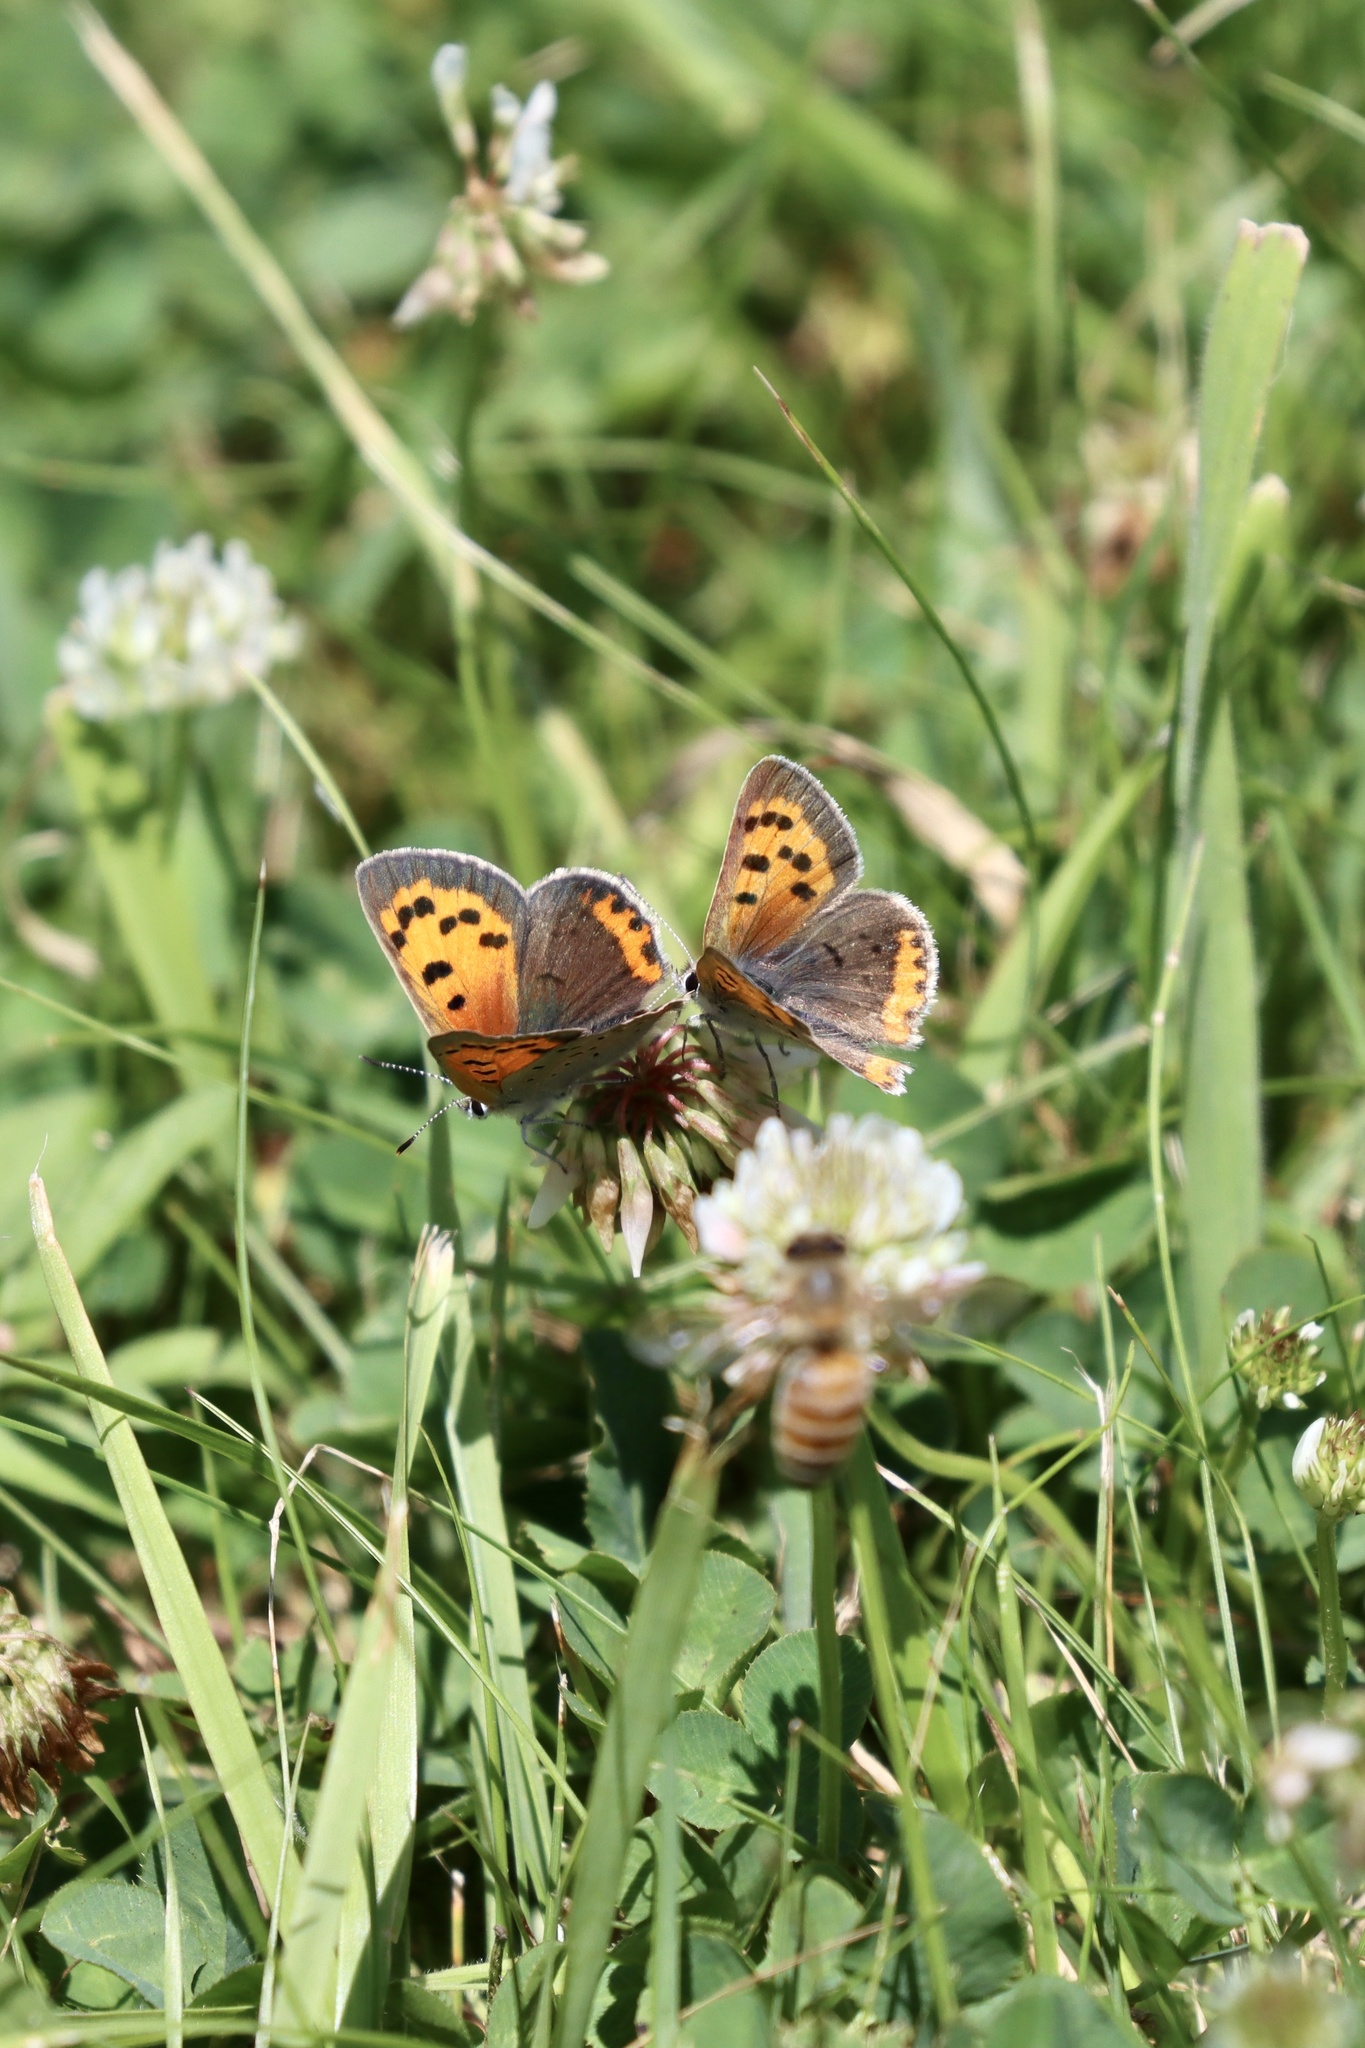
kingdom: Animalia
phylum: Arthropoda
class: Insecta
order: Lepidoptera
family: Lycaenidae
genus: Lycaena
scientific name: Lycaena hypophlaeas
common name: American copper
